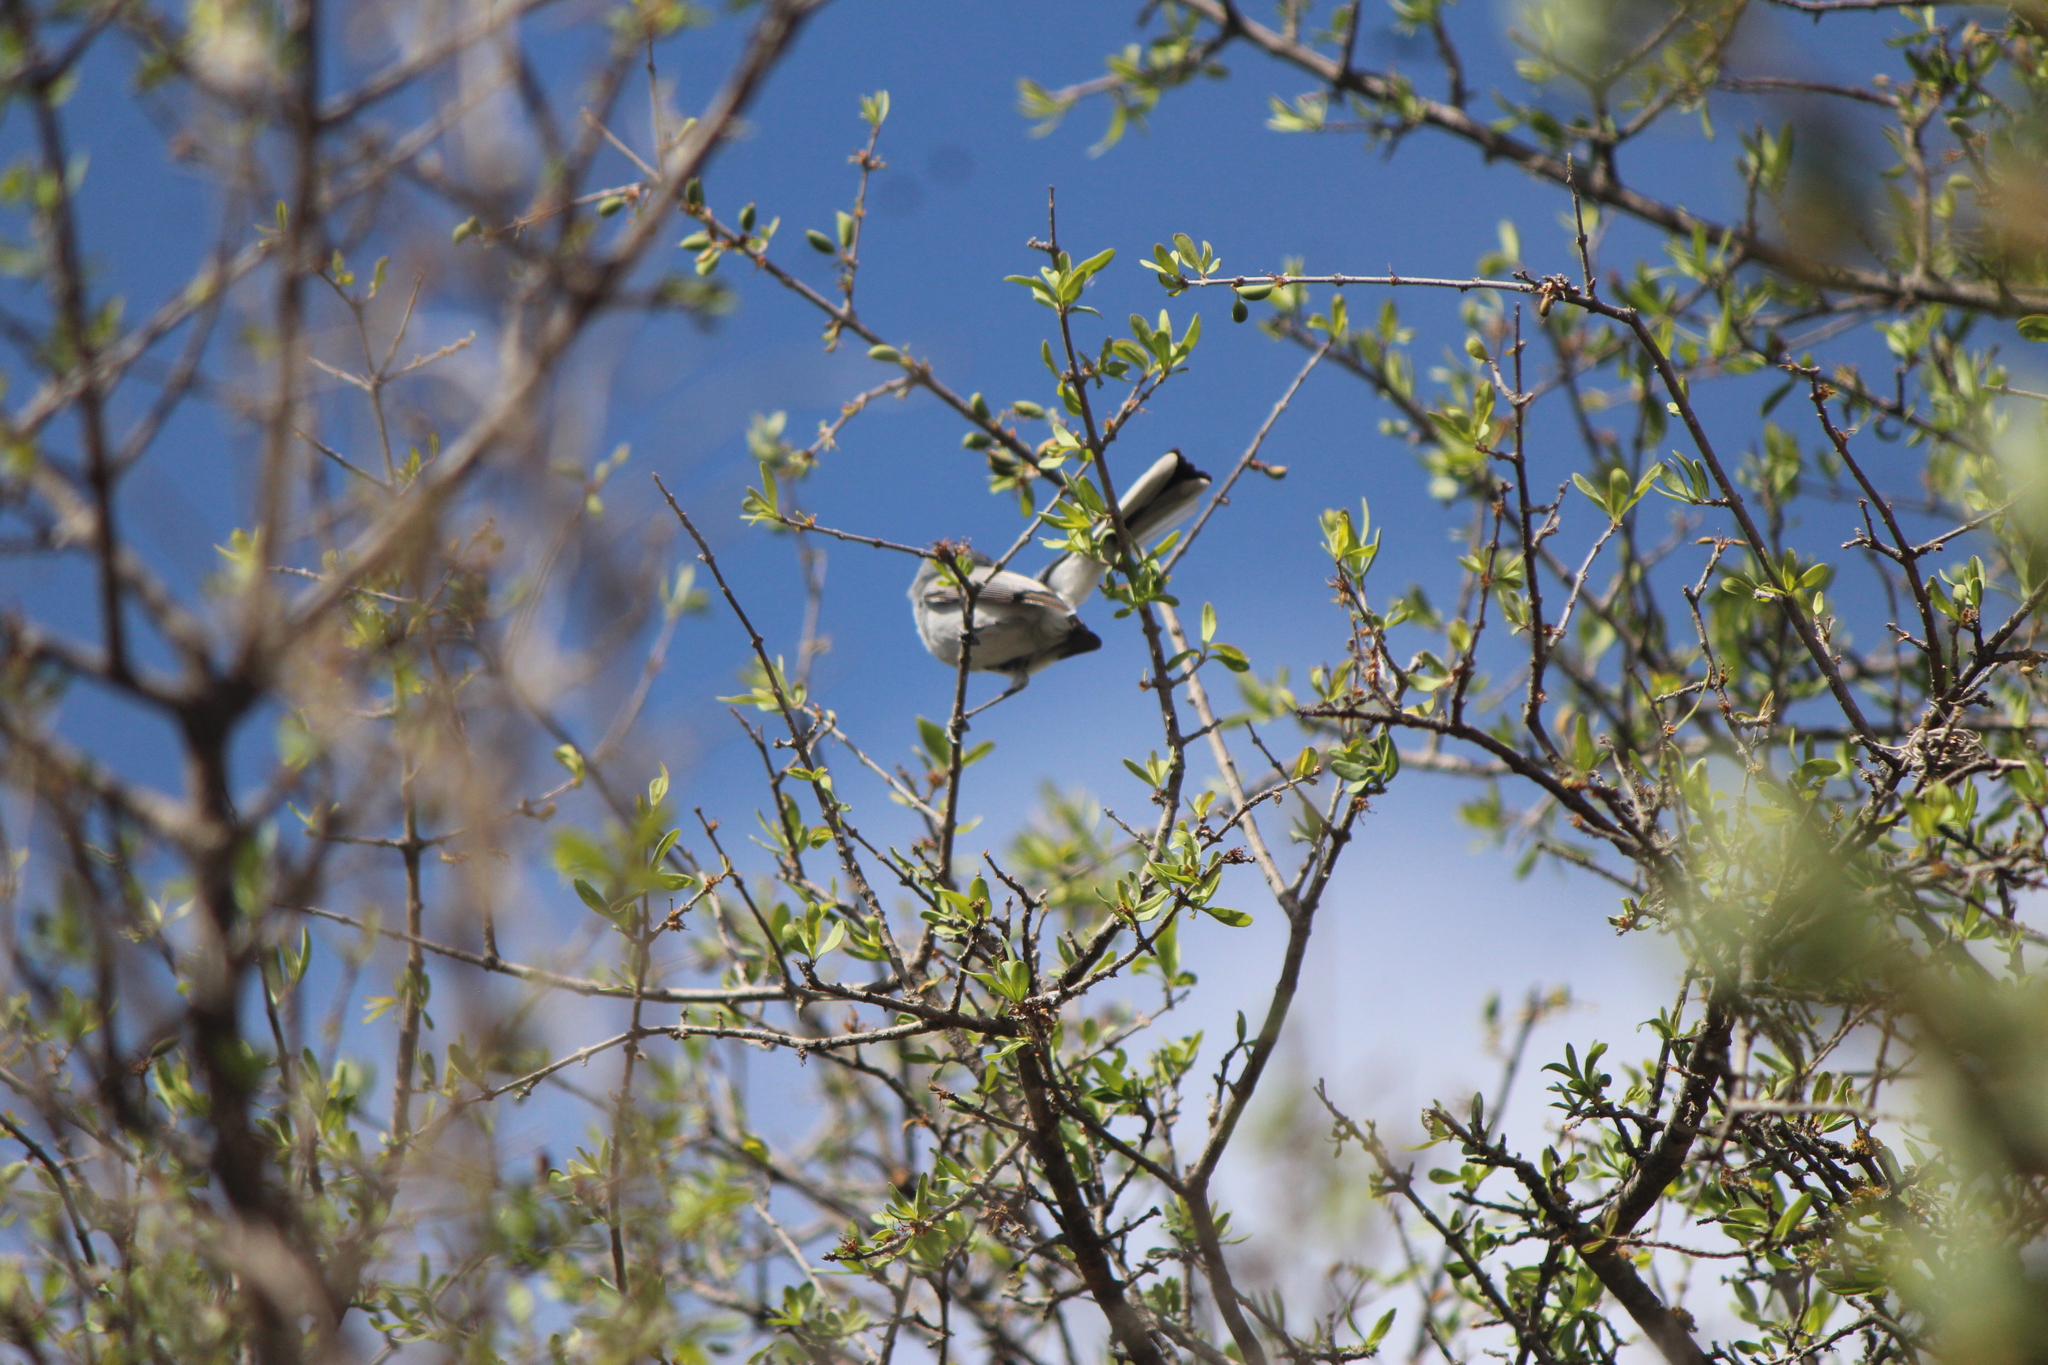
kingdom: Animalia
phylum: Chordata
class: Aves
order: Passeriformes
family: Polioptilidae
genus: Polioptila
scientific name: Polioptila caerulea
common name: Blue-gray gnatcatcher
